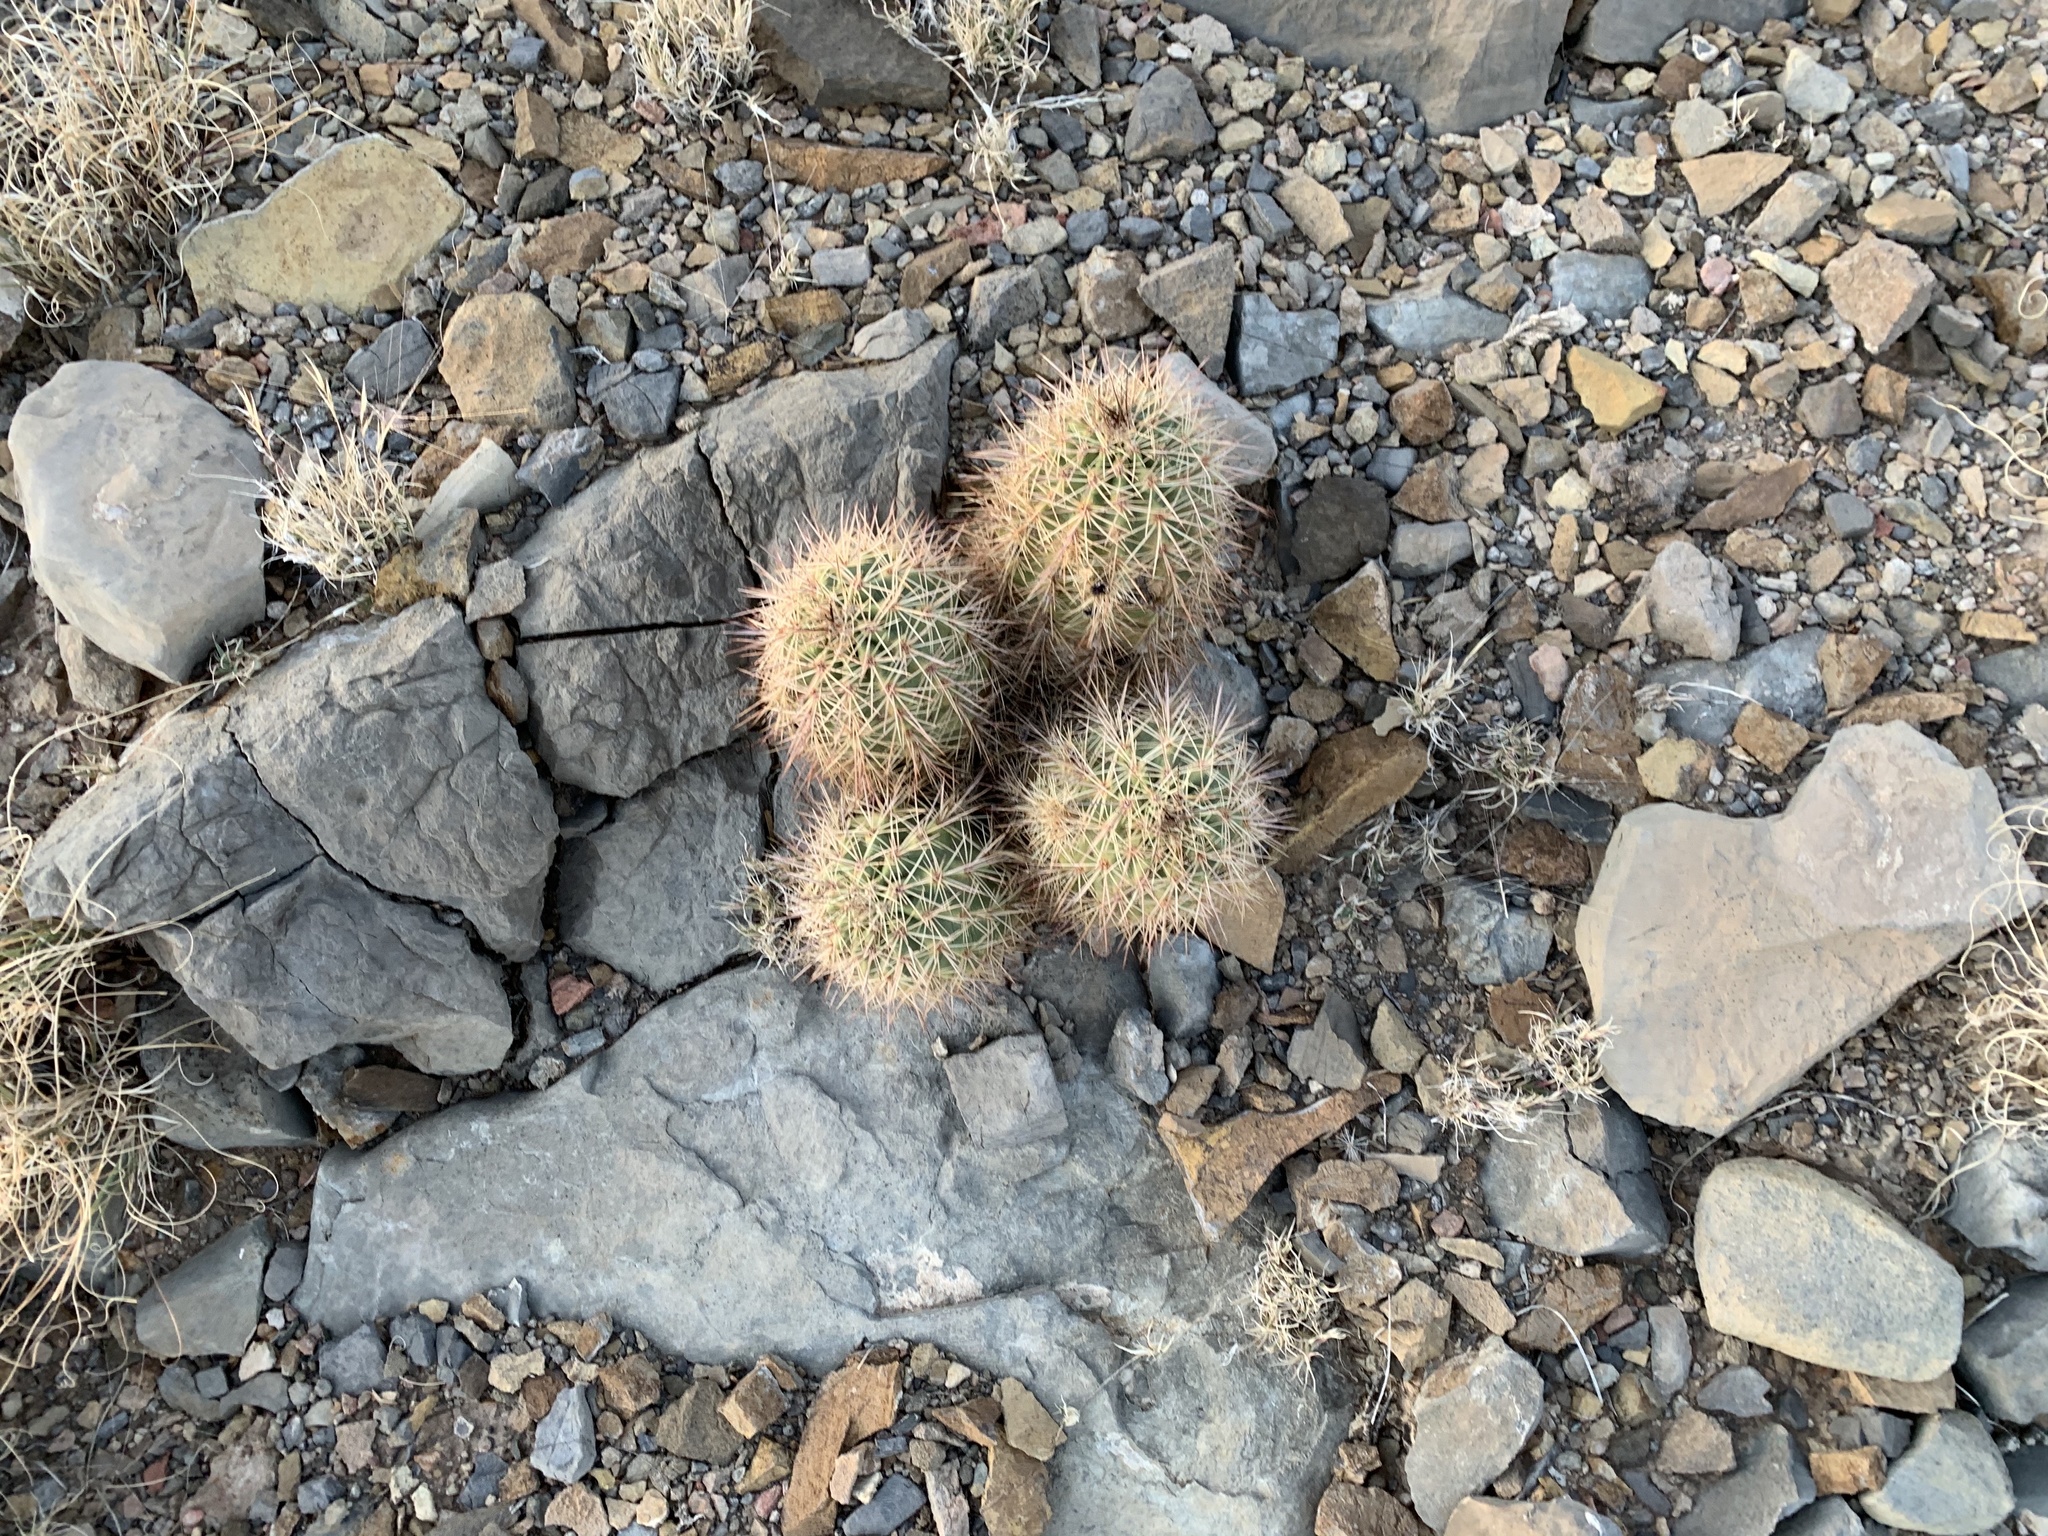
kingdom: Plantae
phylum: Tracheophyta
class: Magnoliopsida
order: Caryophyllales
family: Cactaceae
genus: Echinocereus
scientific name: Echinocereus coccineus
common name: Scarlet hedgehog cactus
